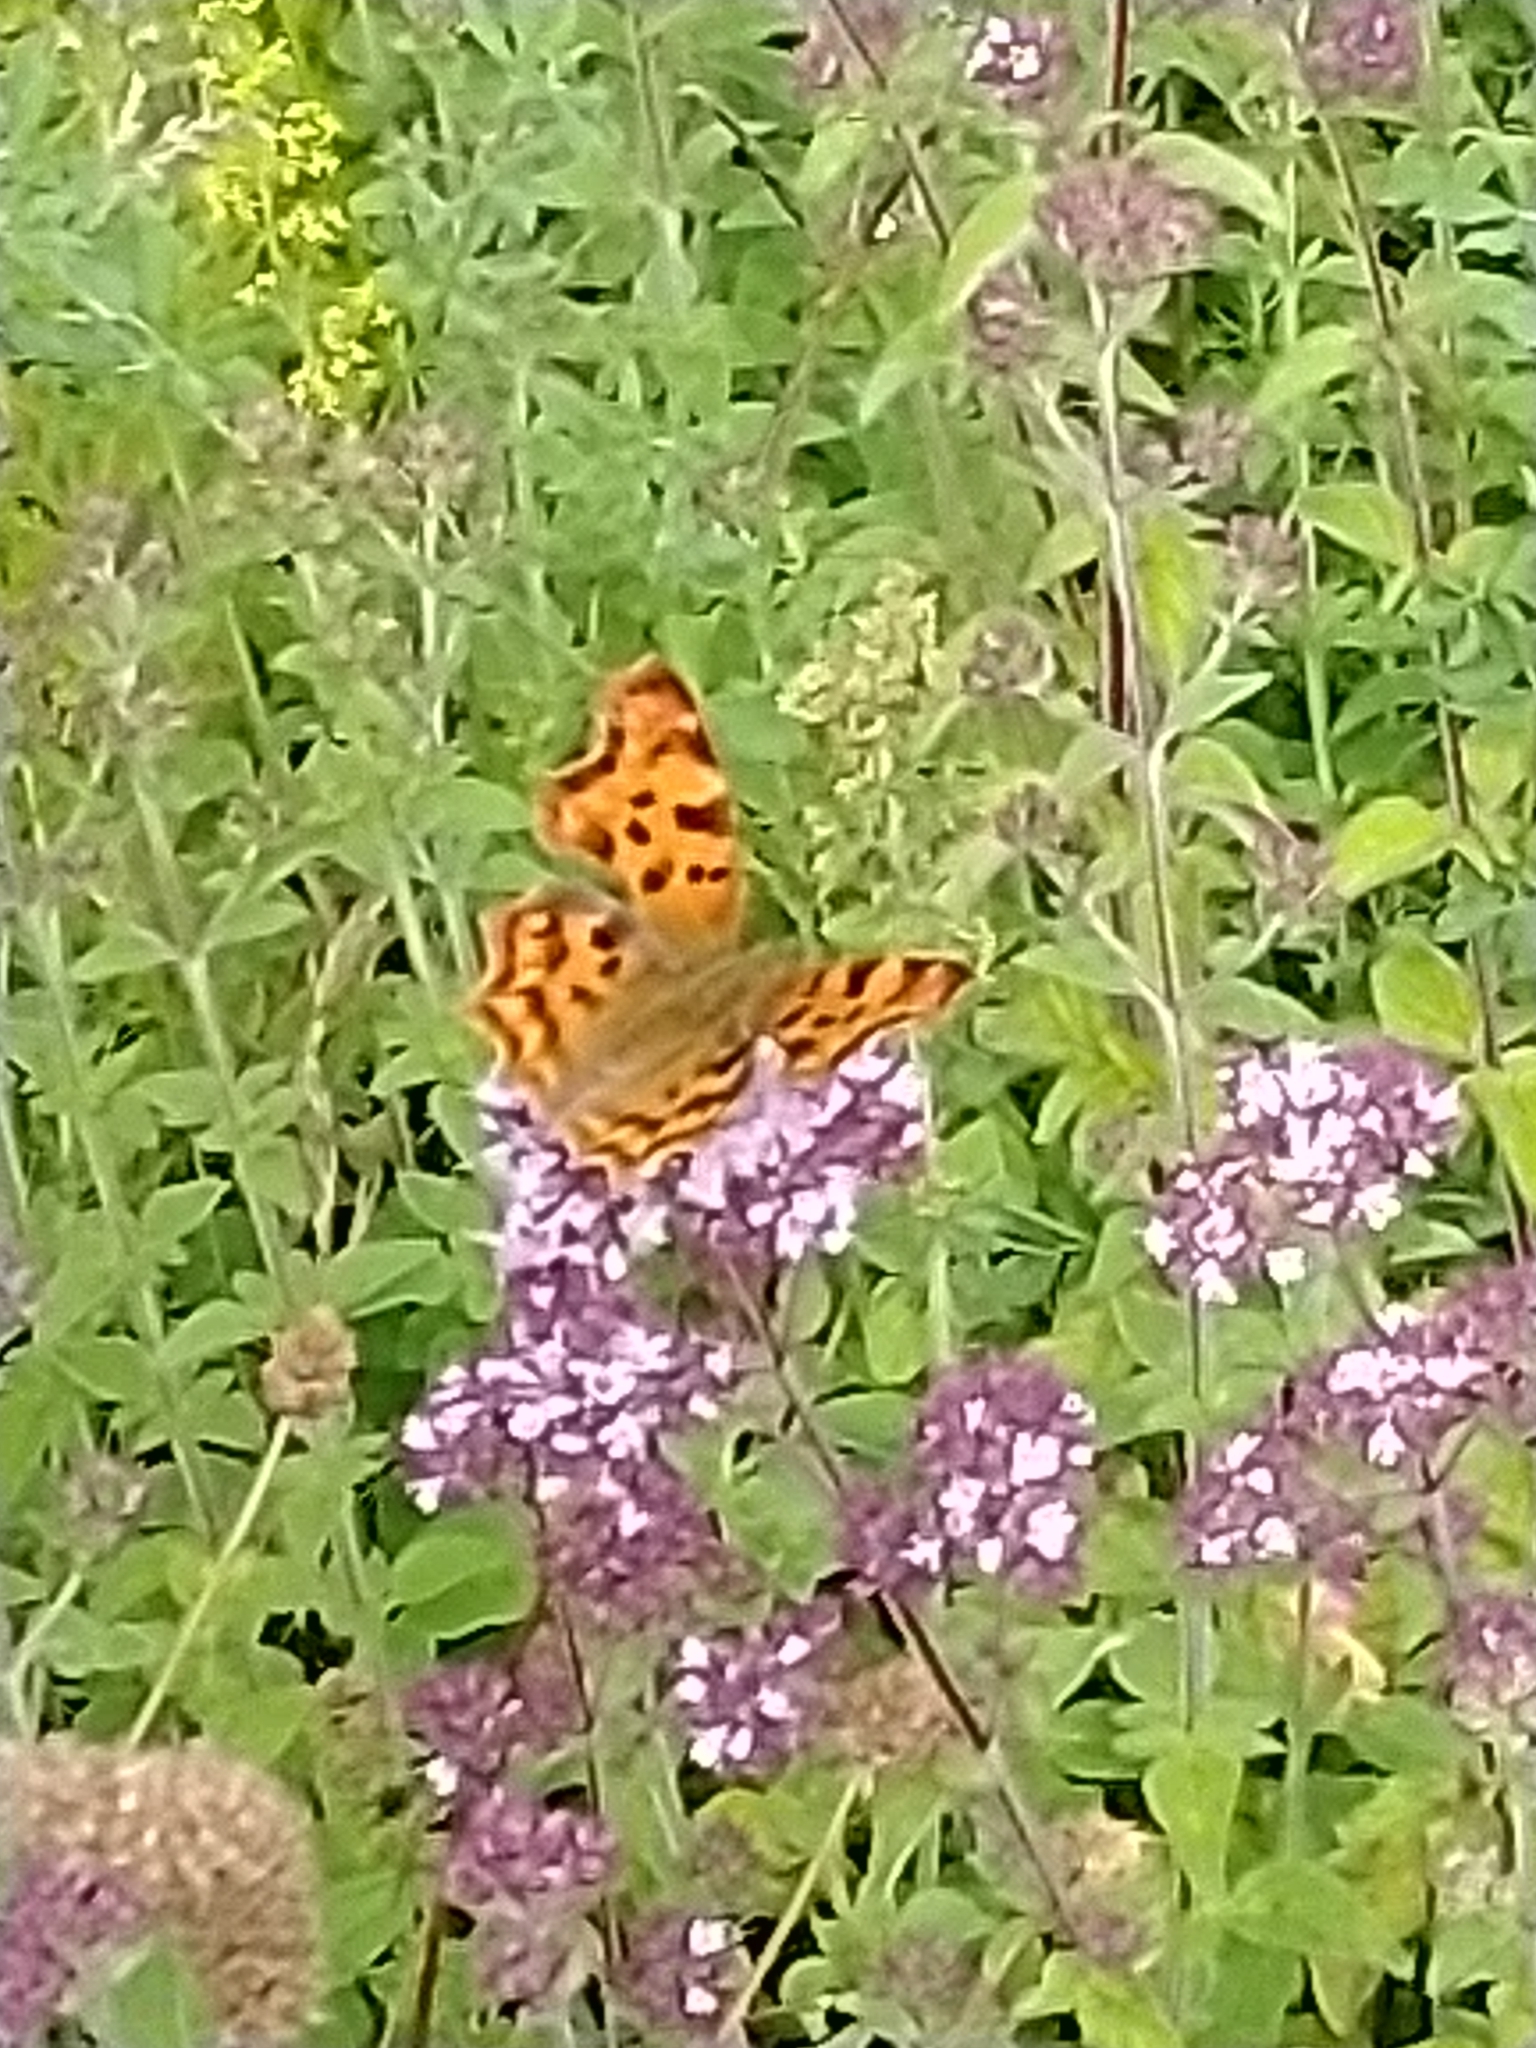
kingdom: Animalia
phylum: Arthropoda
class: Insecta
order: Lepidoptera
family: Nymphalidae
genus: Polygonia
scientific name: Polygonia c-album
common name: Comma
